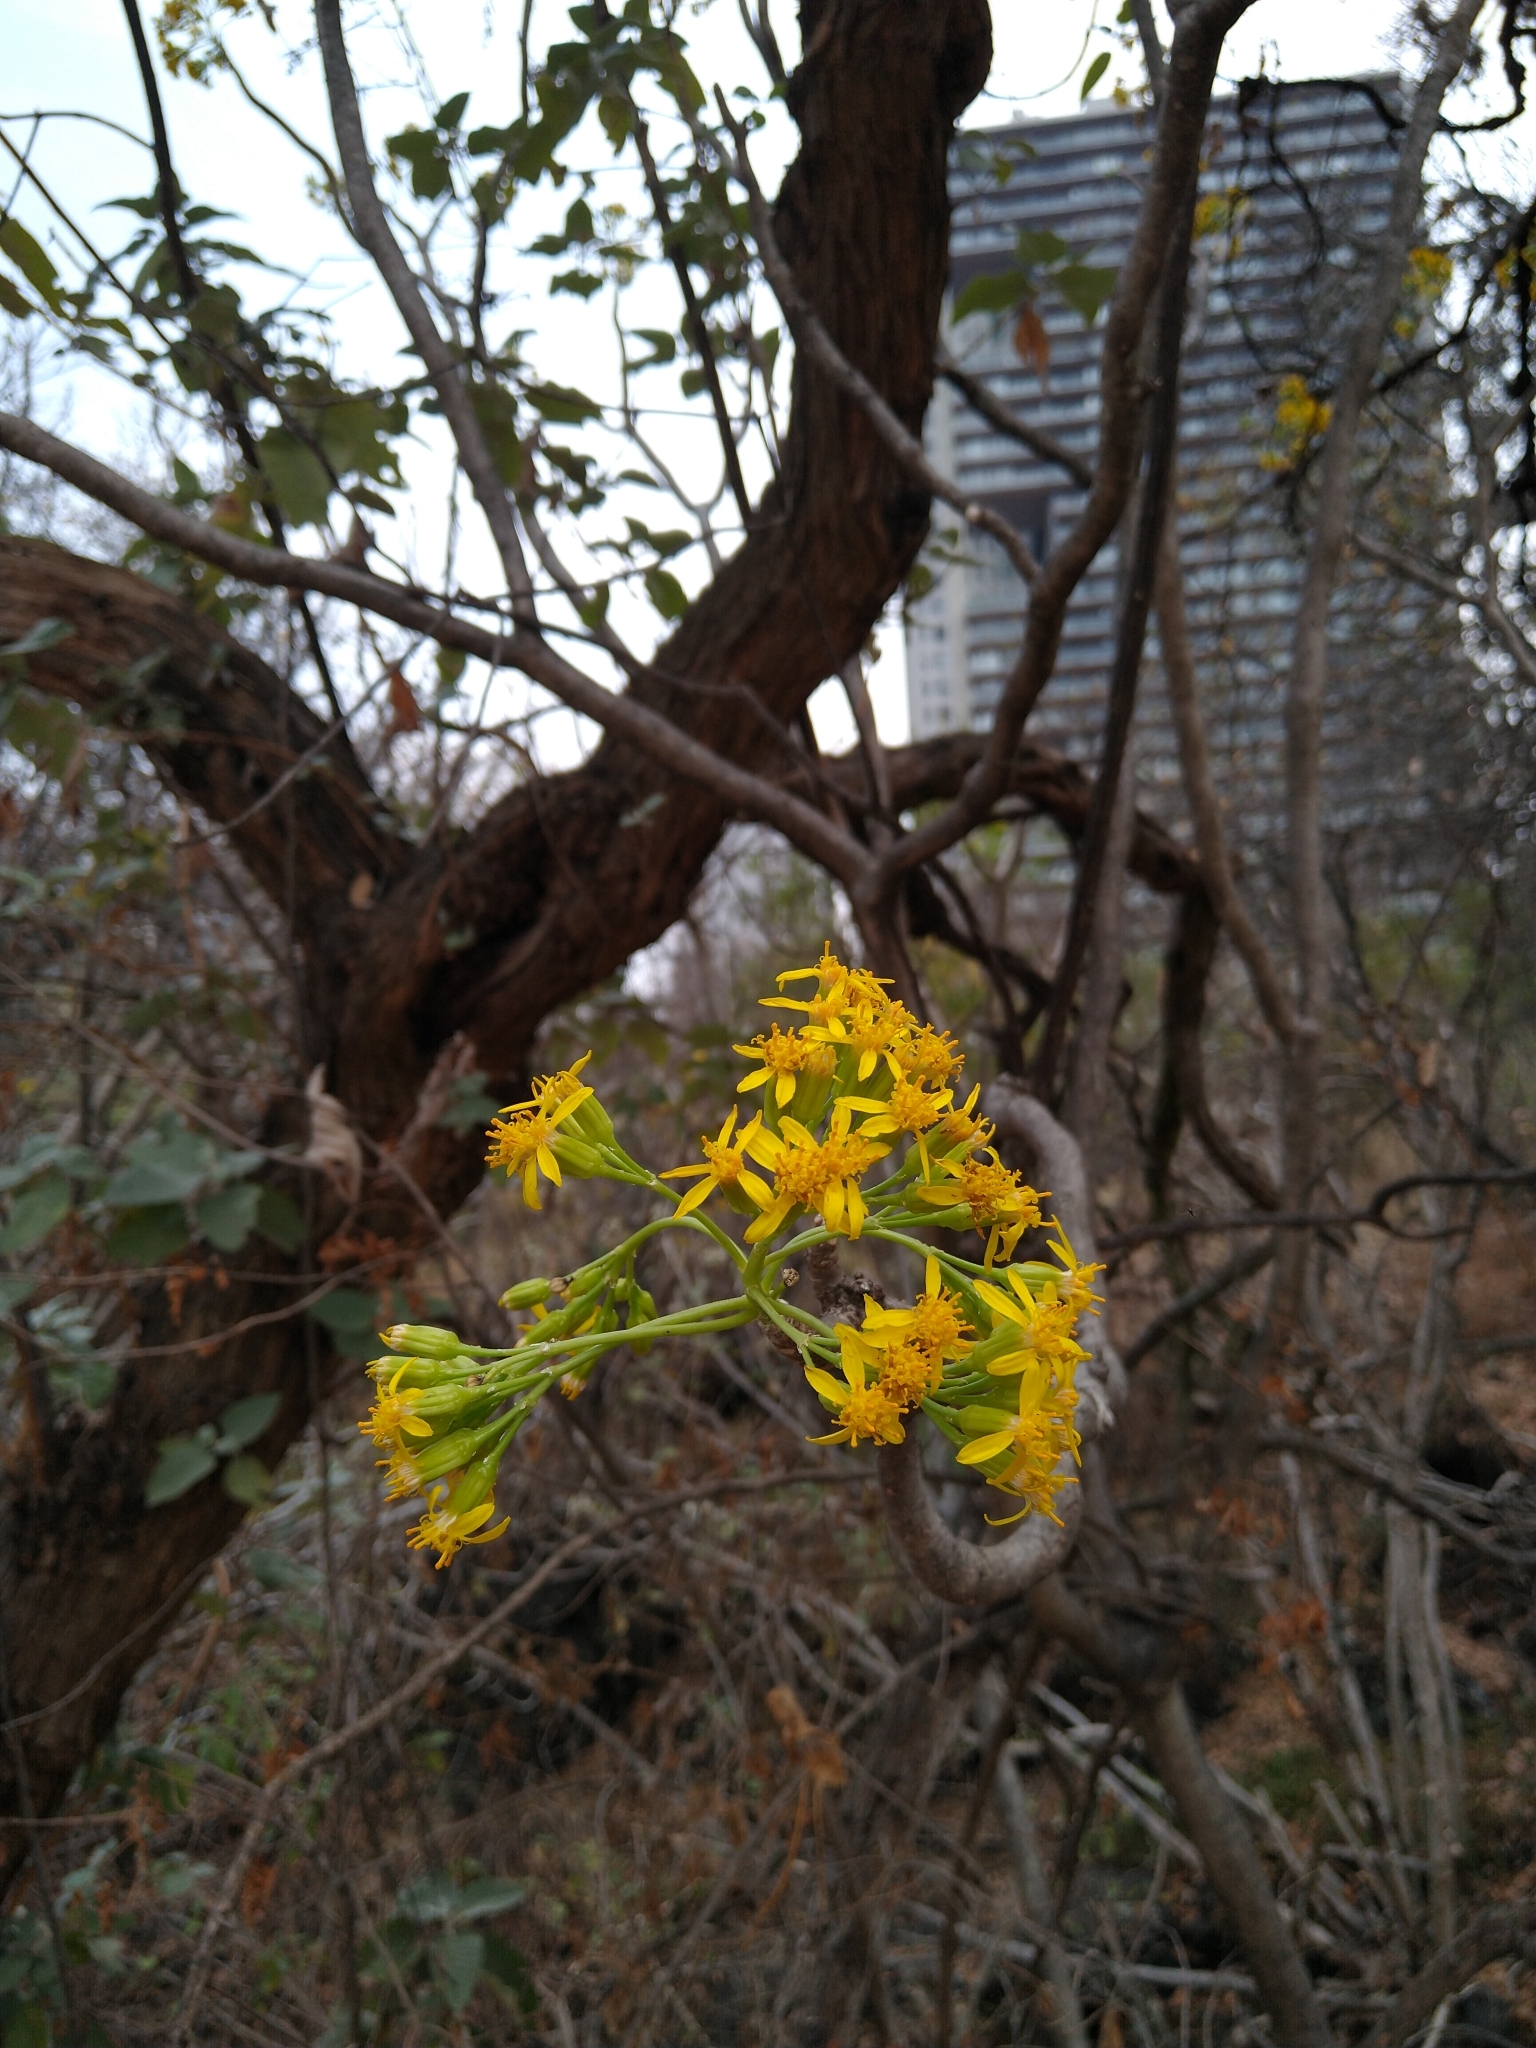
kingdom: Plantae
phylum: Tracheophyta
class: Magnoliopsida
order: Asterales
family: Asteraceae
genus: Pittocaulon
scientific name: Pittocaulon praecox
